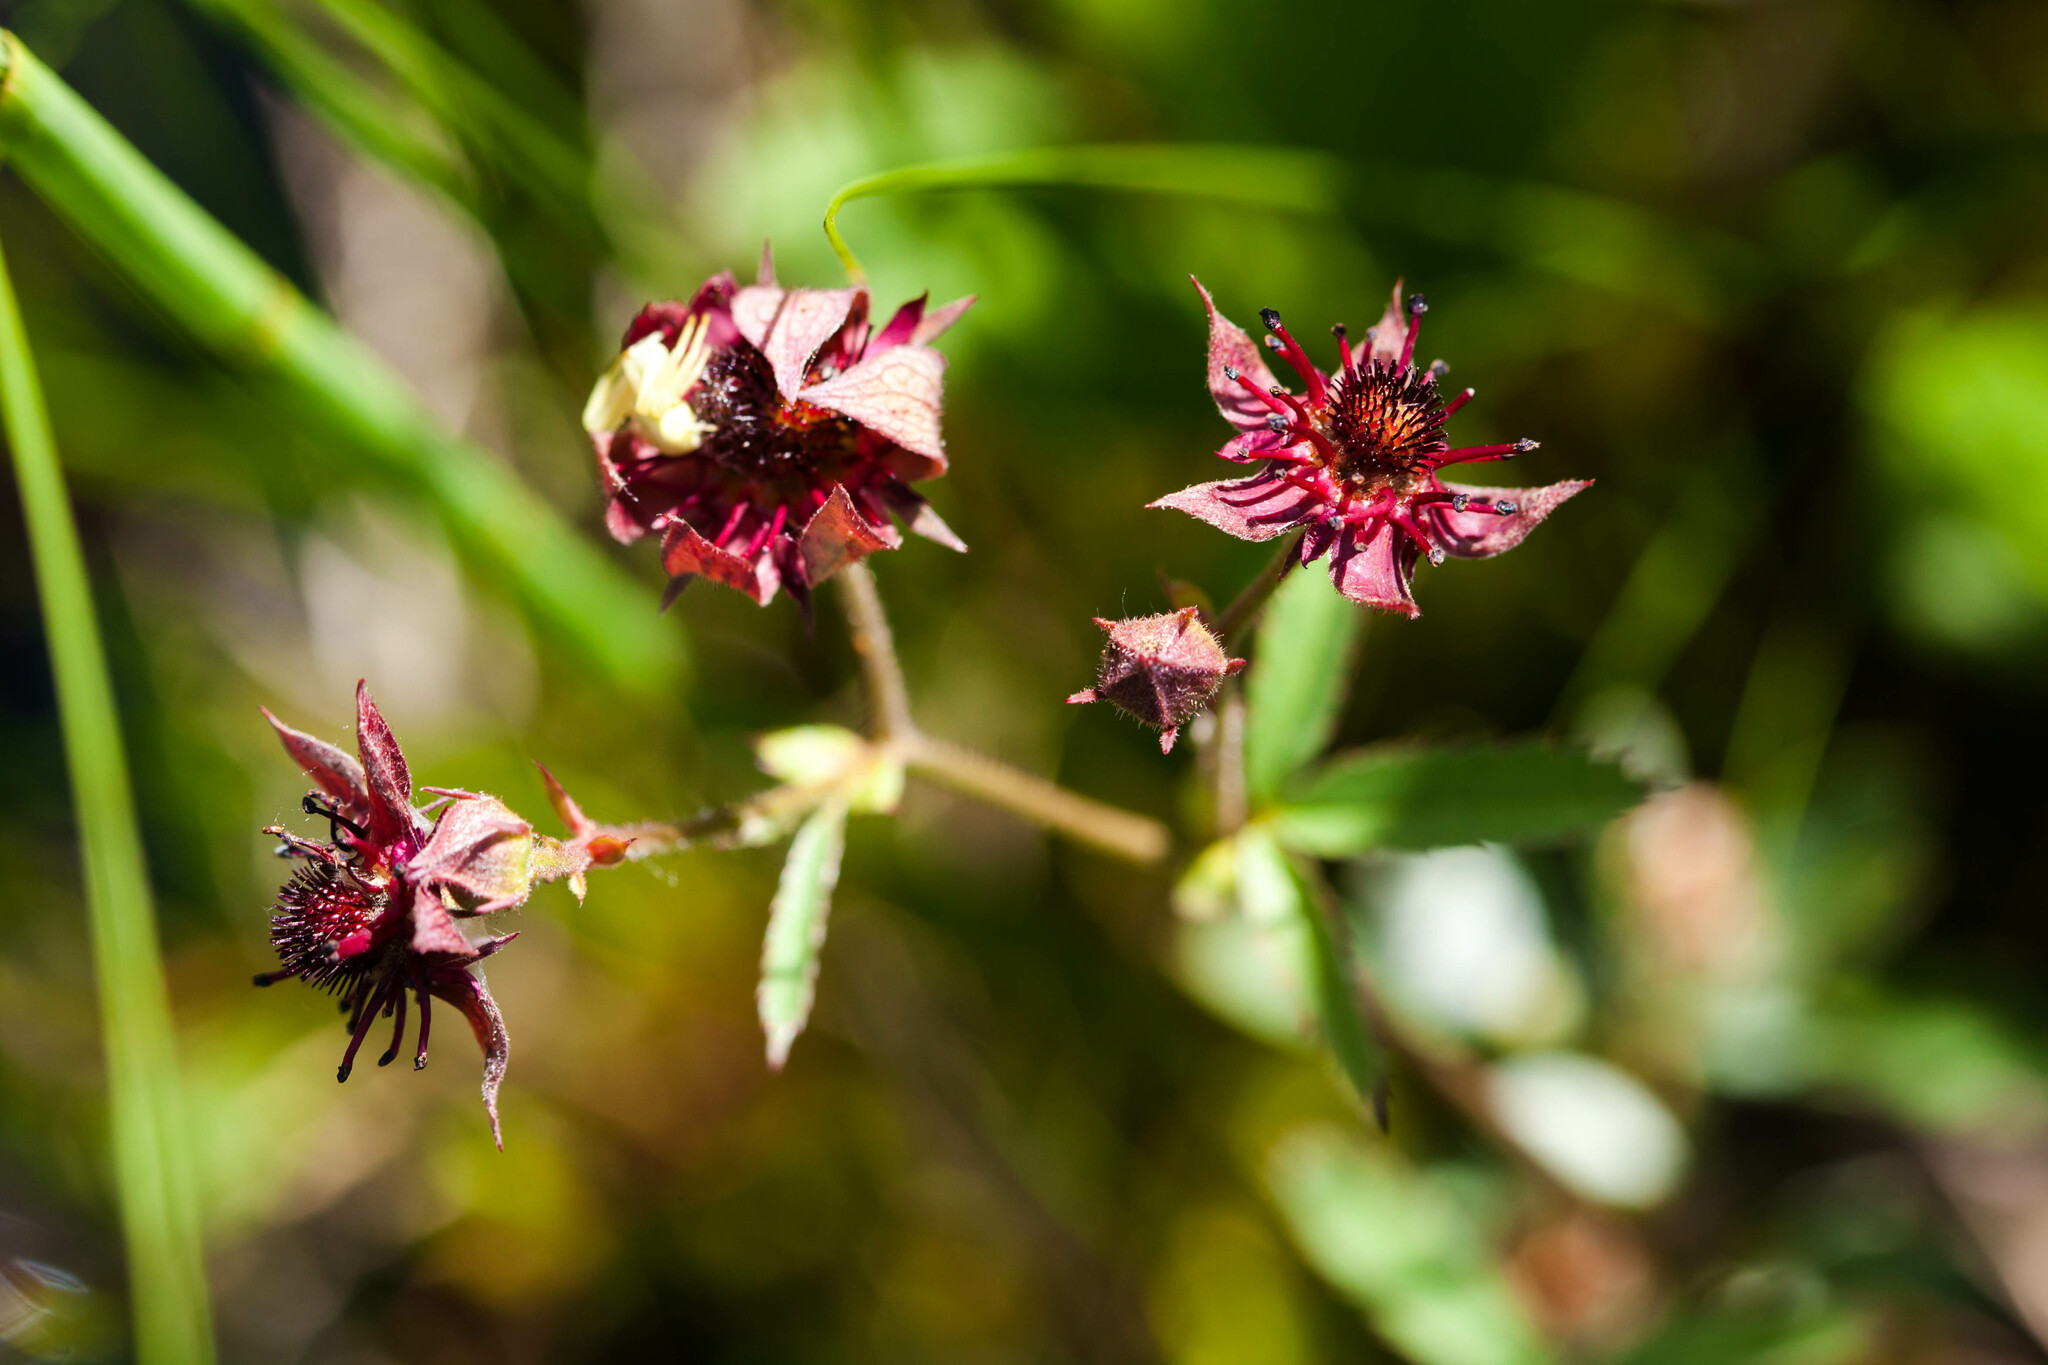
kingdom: Plantae
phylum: Tracheophyta
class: Magnoliopsida
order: Rosales
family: Rosaceae
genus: Comarum
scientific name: Comarum palustre
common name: Marsh cinquefoil
